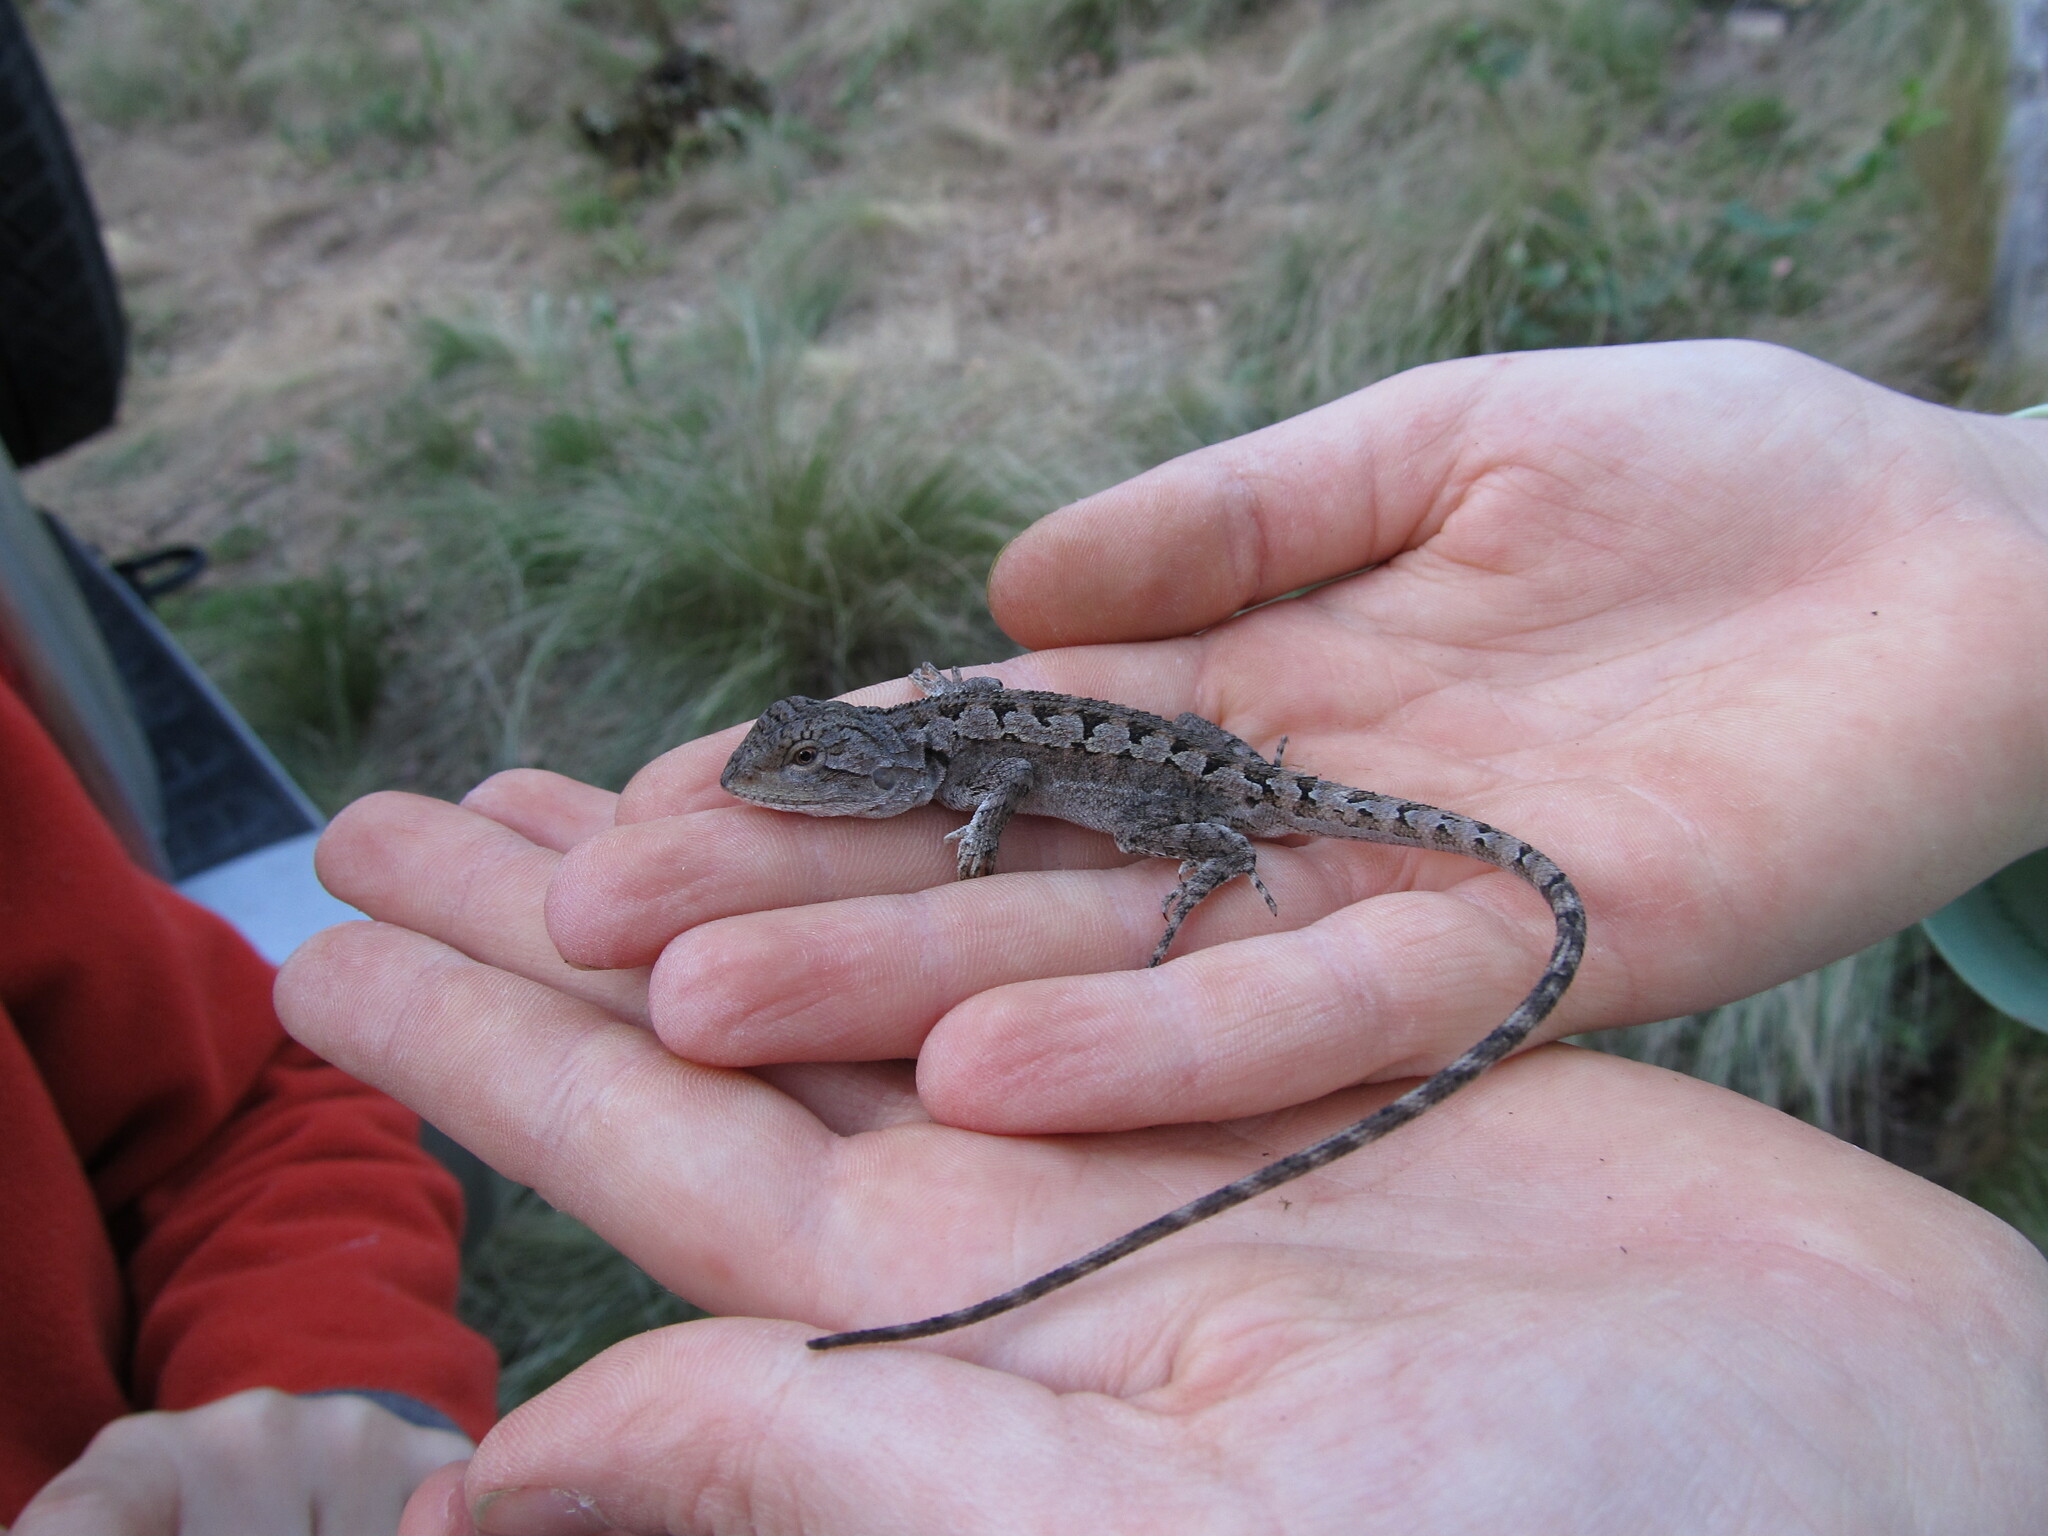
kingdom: Animalia
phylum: Chordata
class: Squamata
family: Agamidae
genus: Amphibolurus
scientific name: Amphibolurus muricatus
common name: Jacky lizard
